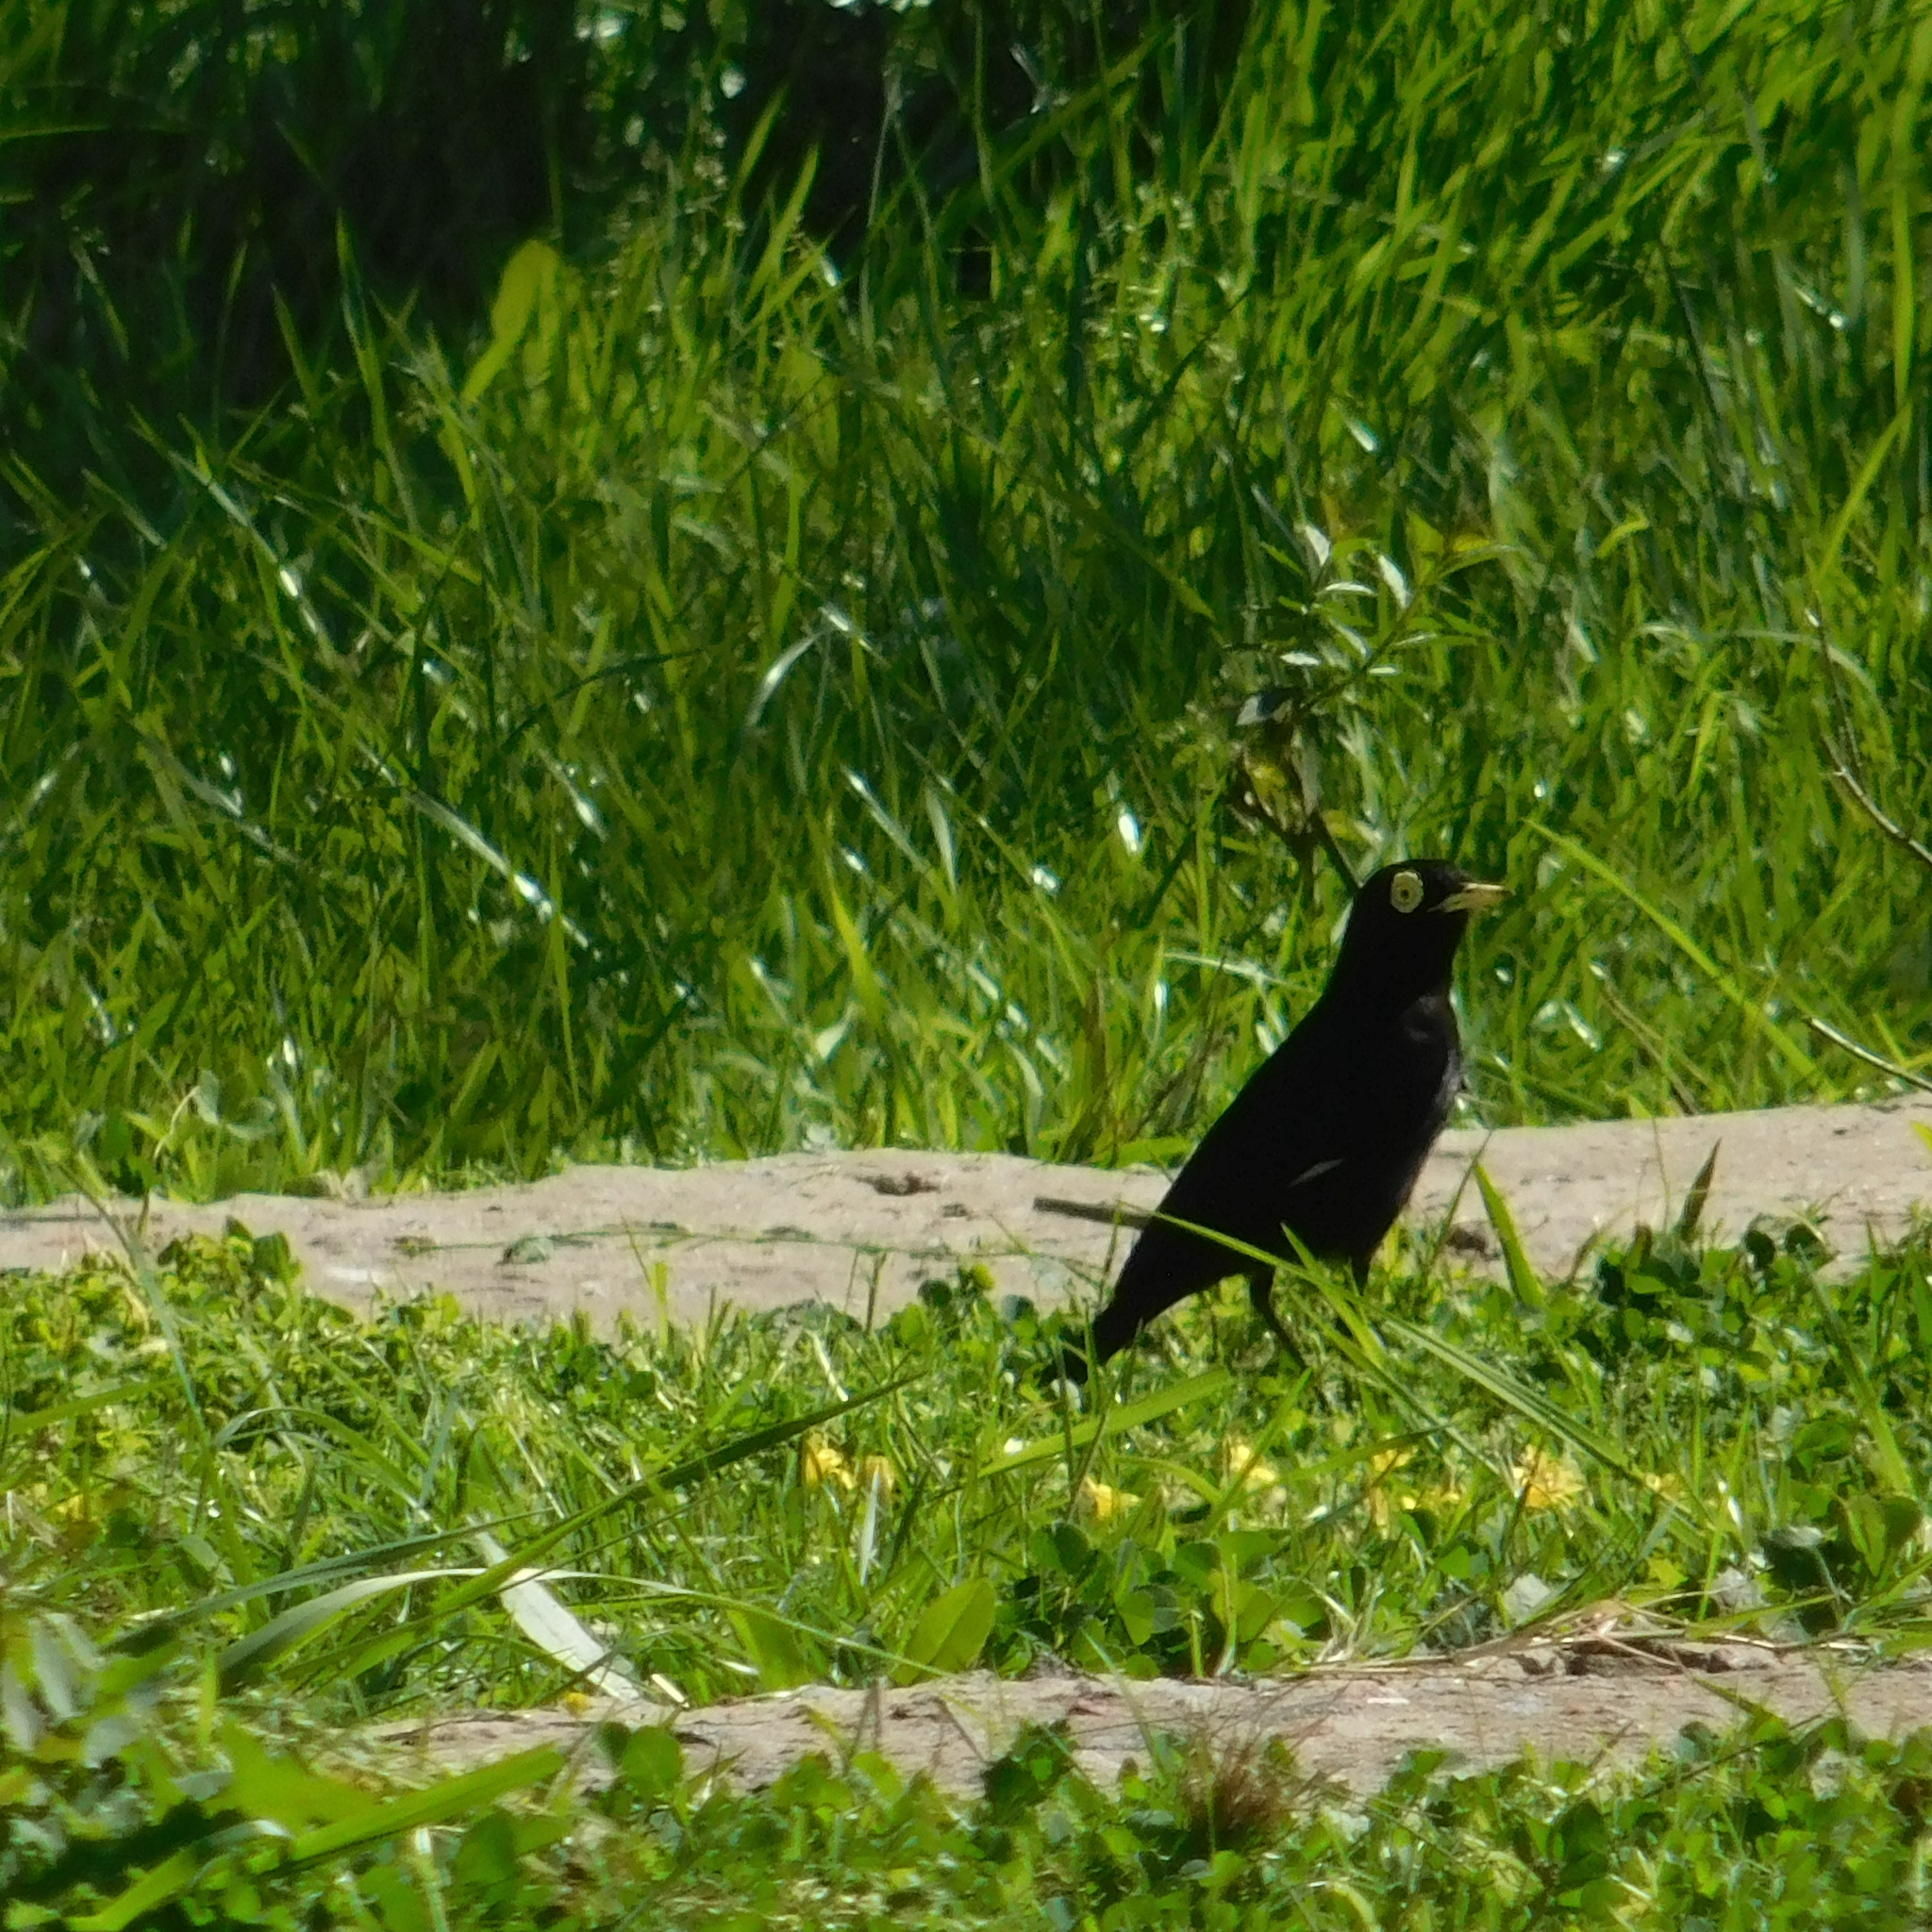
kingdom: Animalia
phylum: Chordata
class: Aves
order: Passeriformes
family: Tyrannidae
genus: Hymenops
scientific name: Hymenops perspicillatus
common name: Spectacled tyrant
